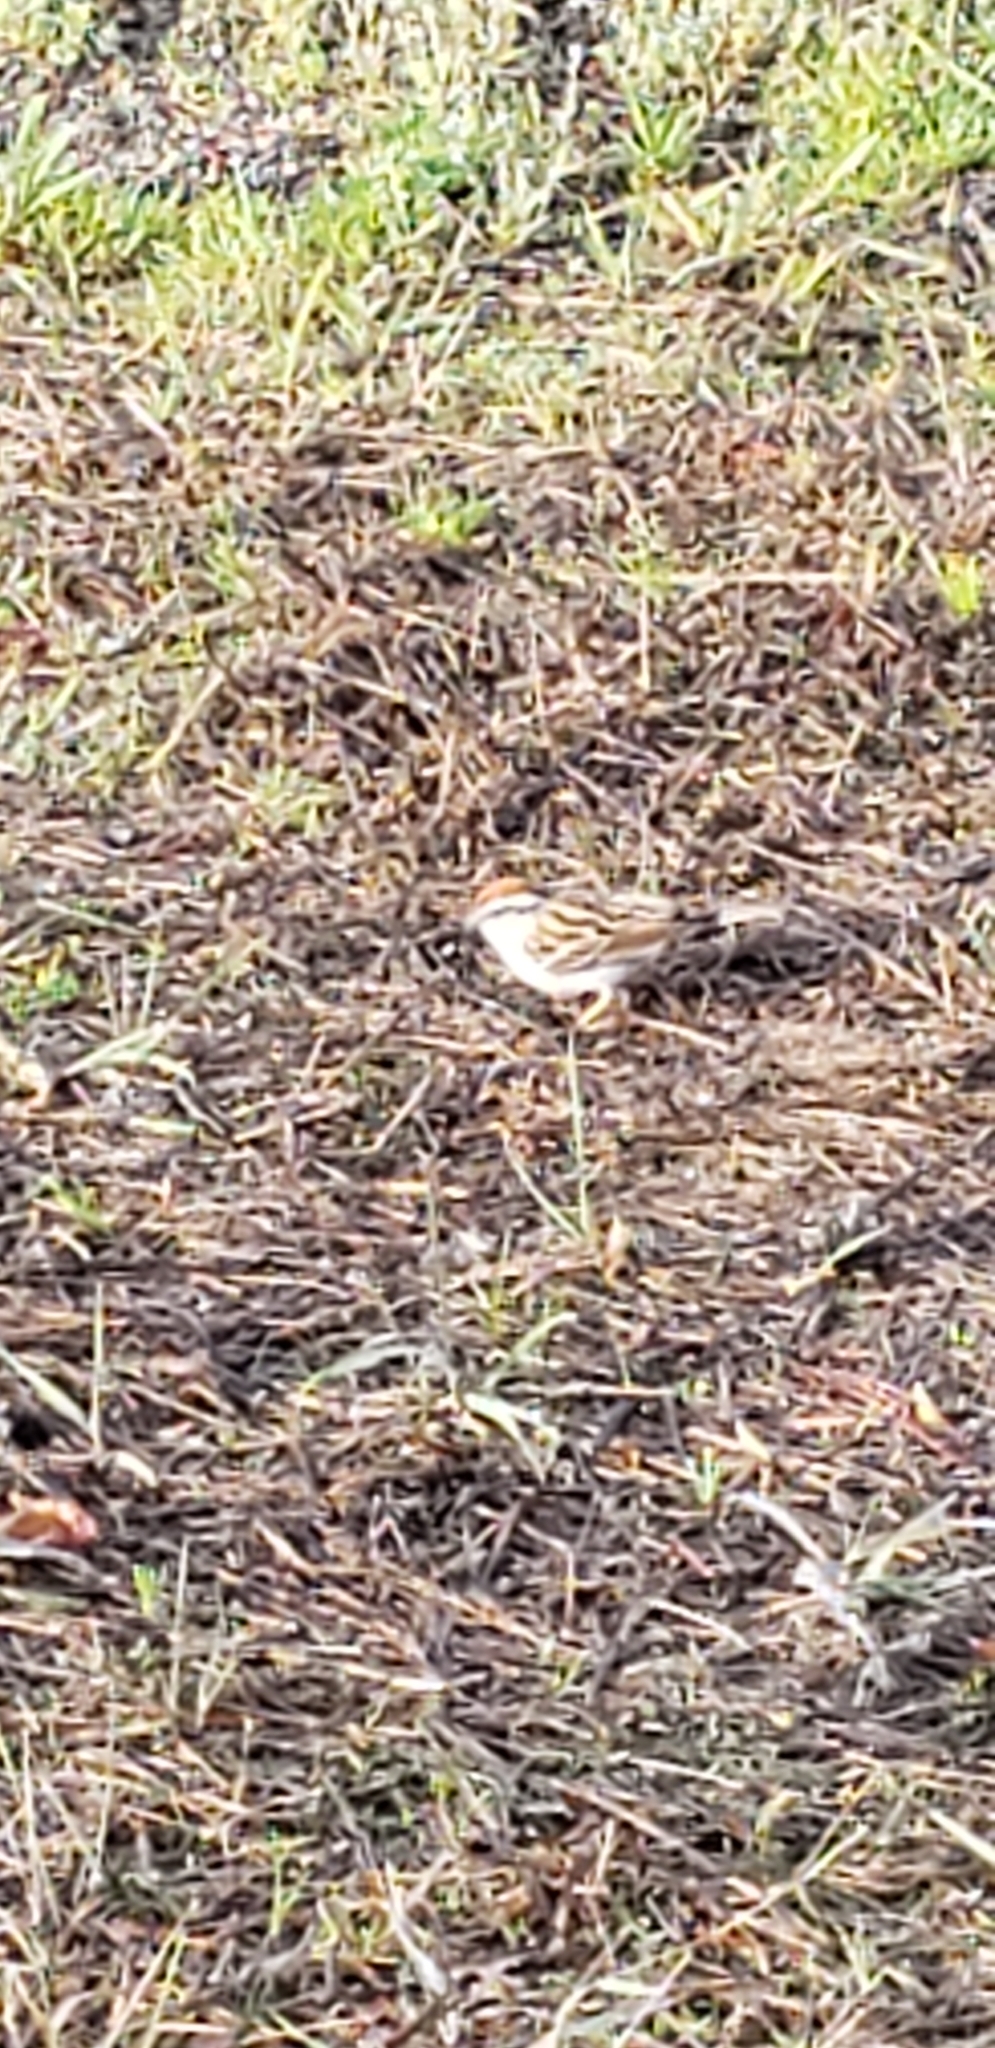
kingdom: Animalia
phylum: Chordata
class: Aves
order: Passeriformes
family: Passerellidae
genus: Spizella
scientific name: Spizella passerina
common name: Chipping sparrow
